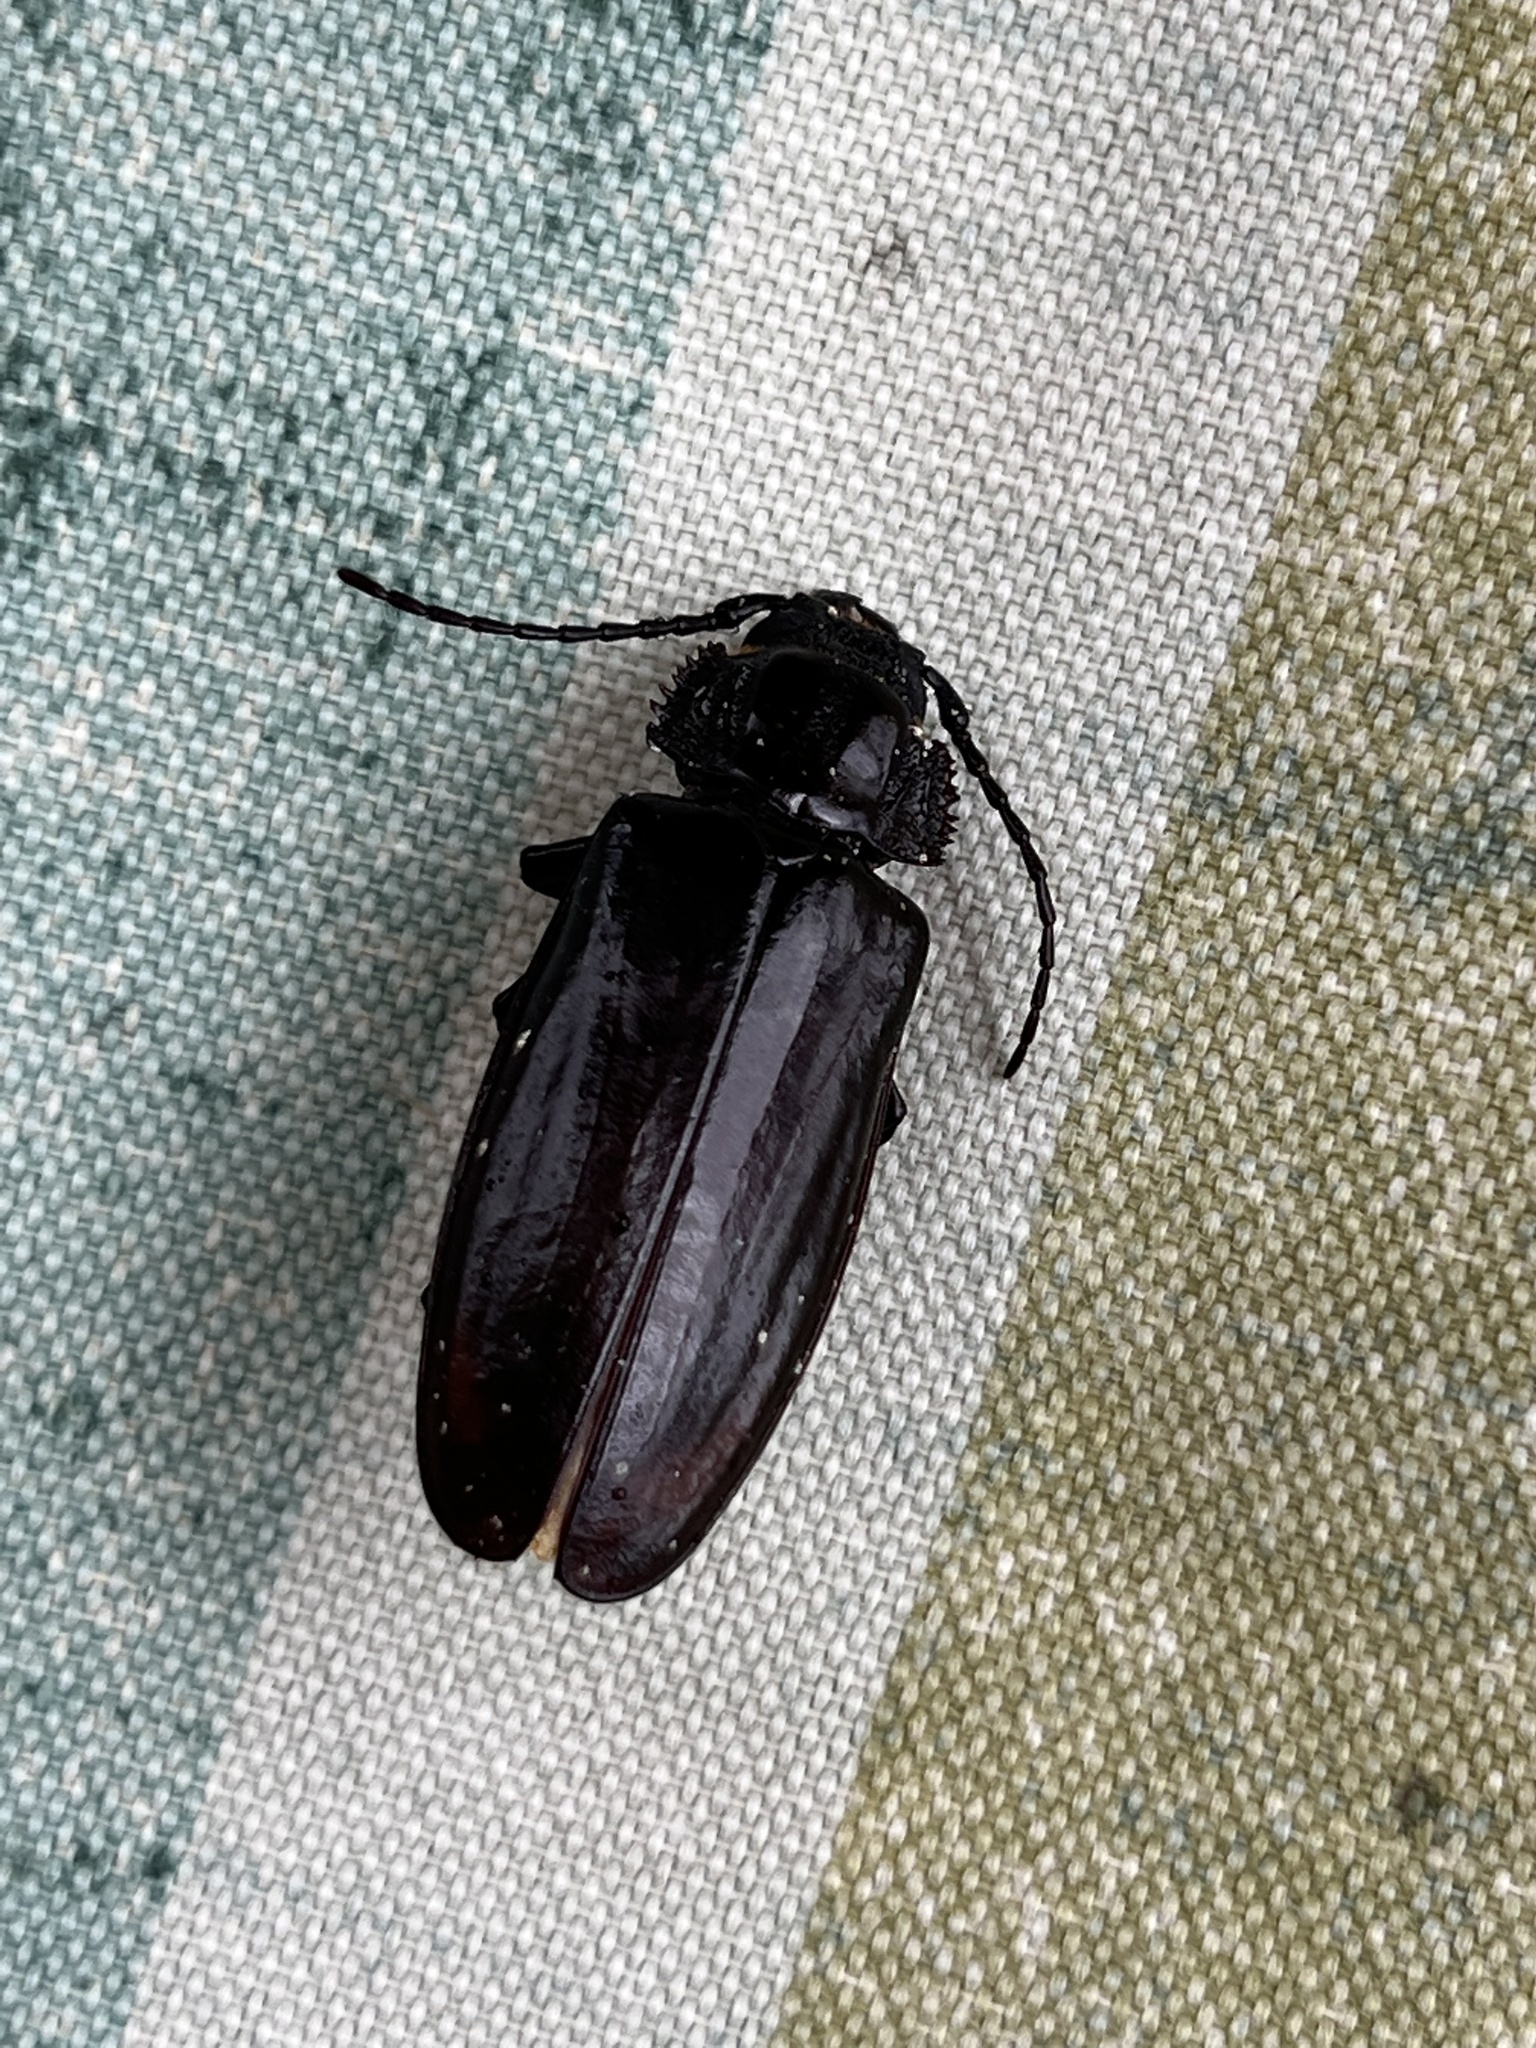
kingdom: Animalia
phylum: Arthropoda
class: Insecta
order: Coleoptera
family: Cerambycidae
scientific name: Cerambycidae
